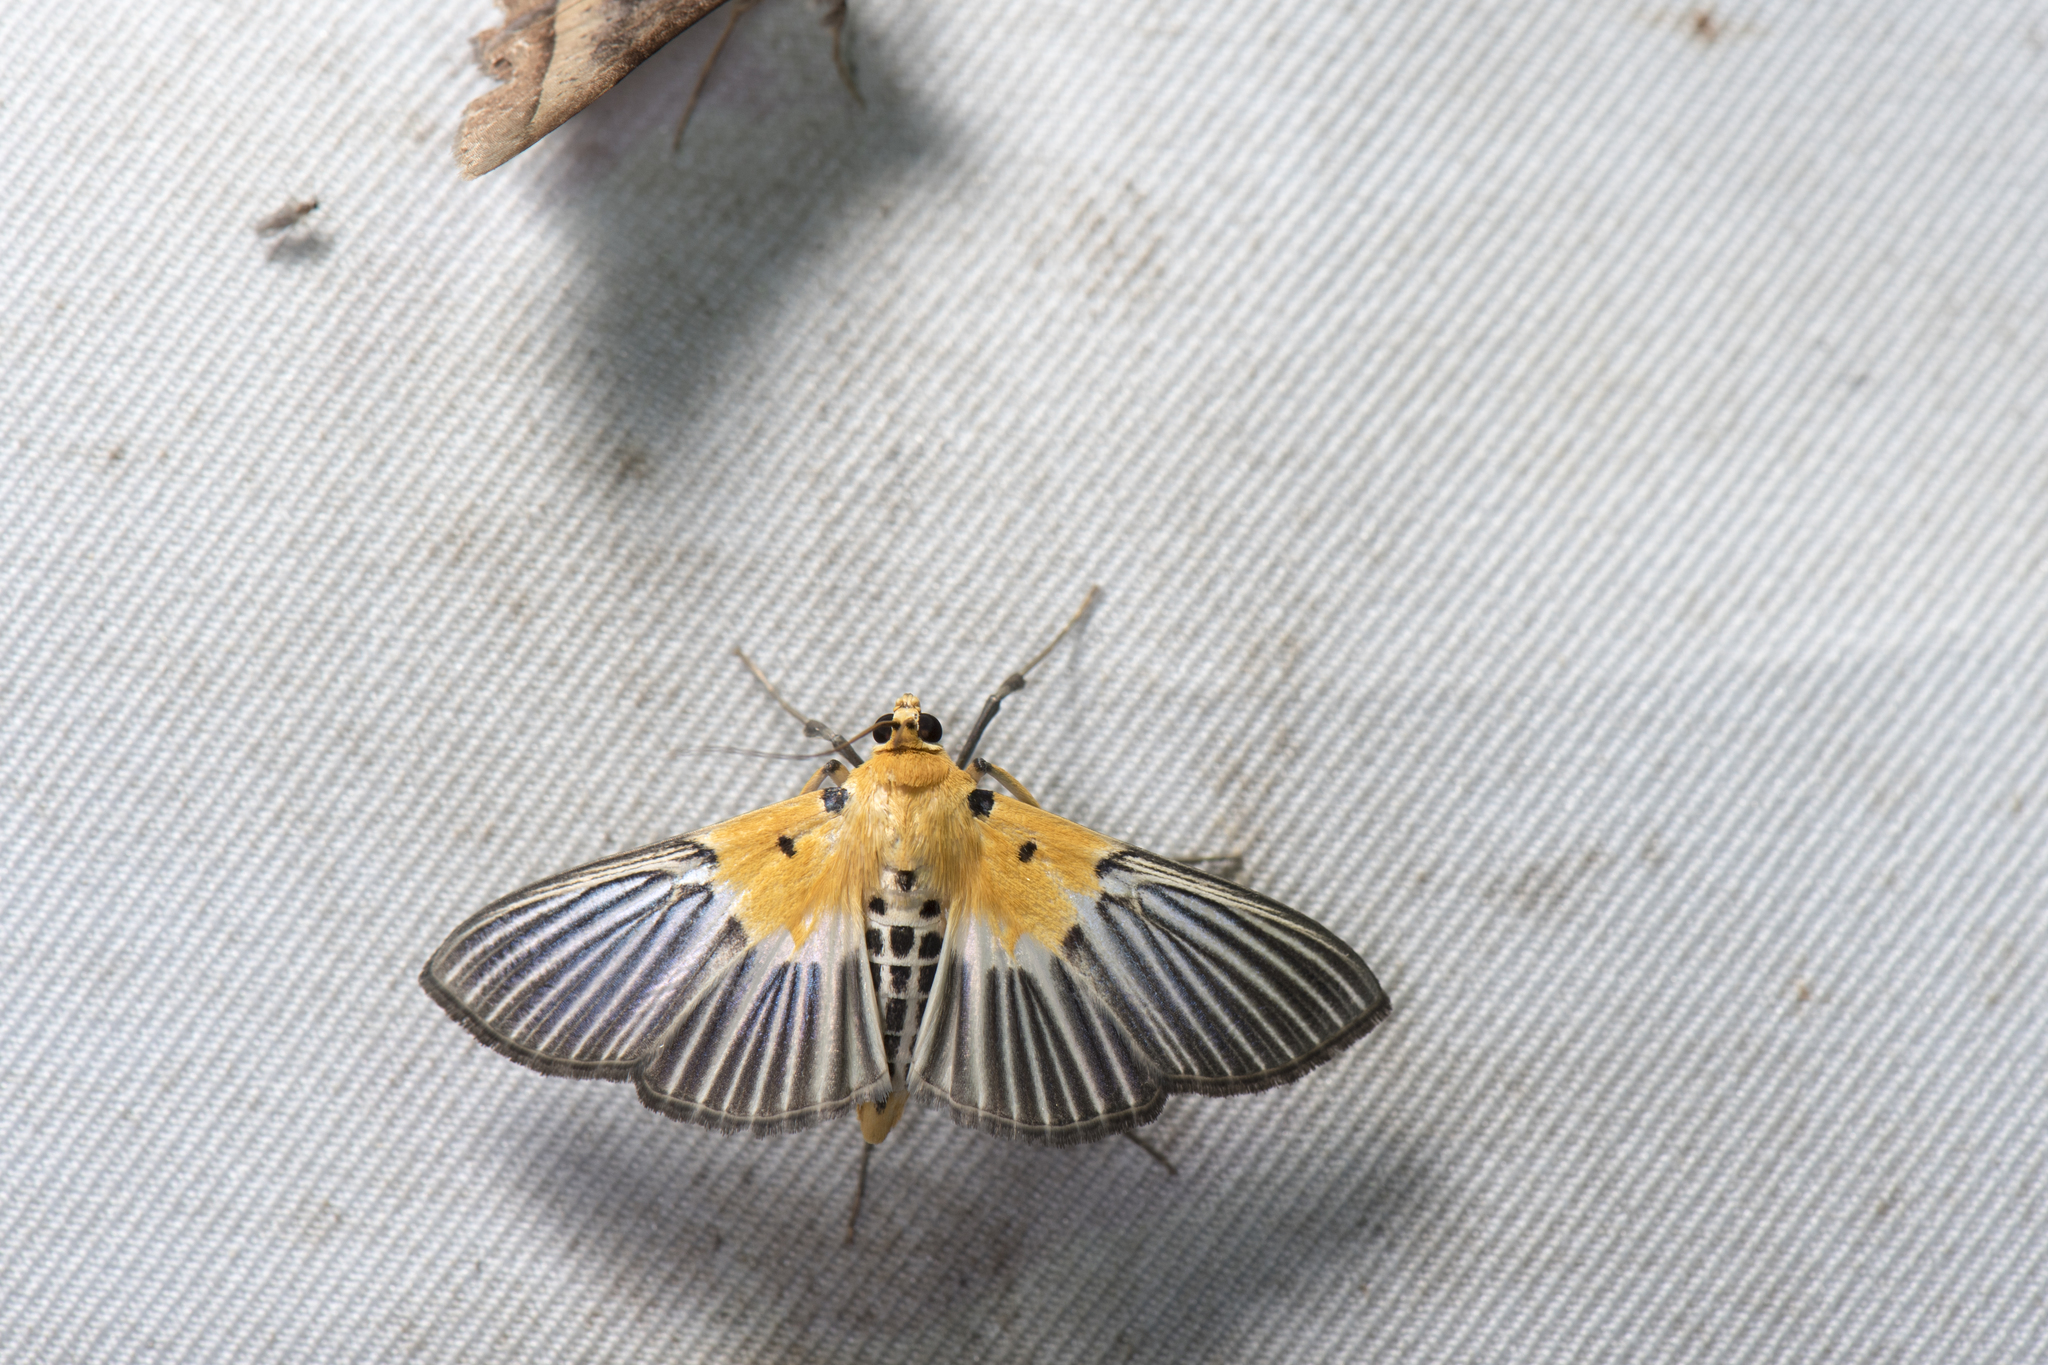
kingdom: Animalia
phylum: Arthropoda
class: Insecta
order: Lepidoptera
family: Crambidae
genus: Nevrina
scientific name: Nevrina procopia
